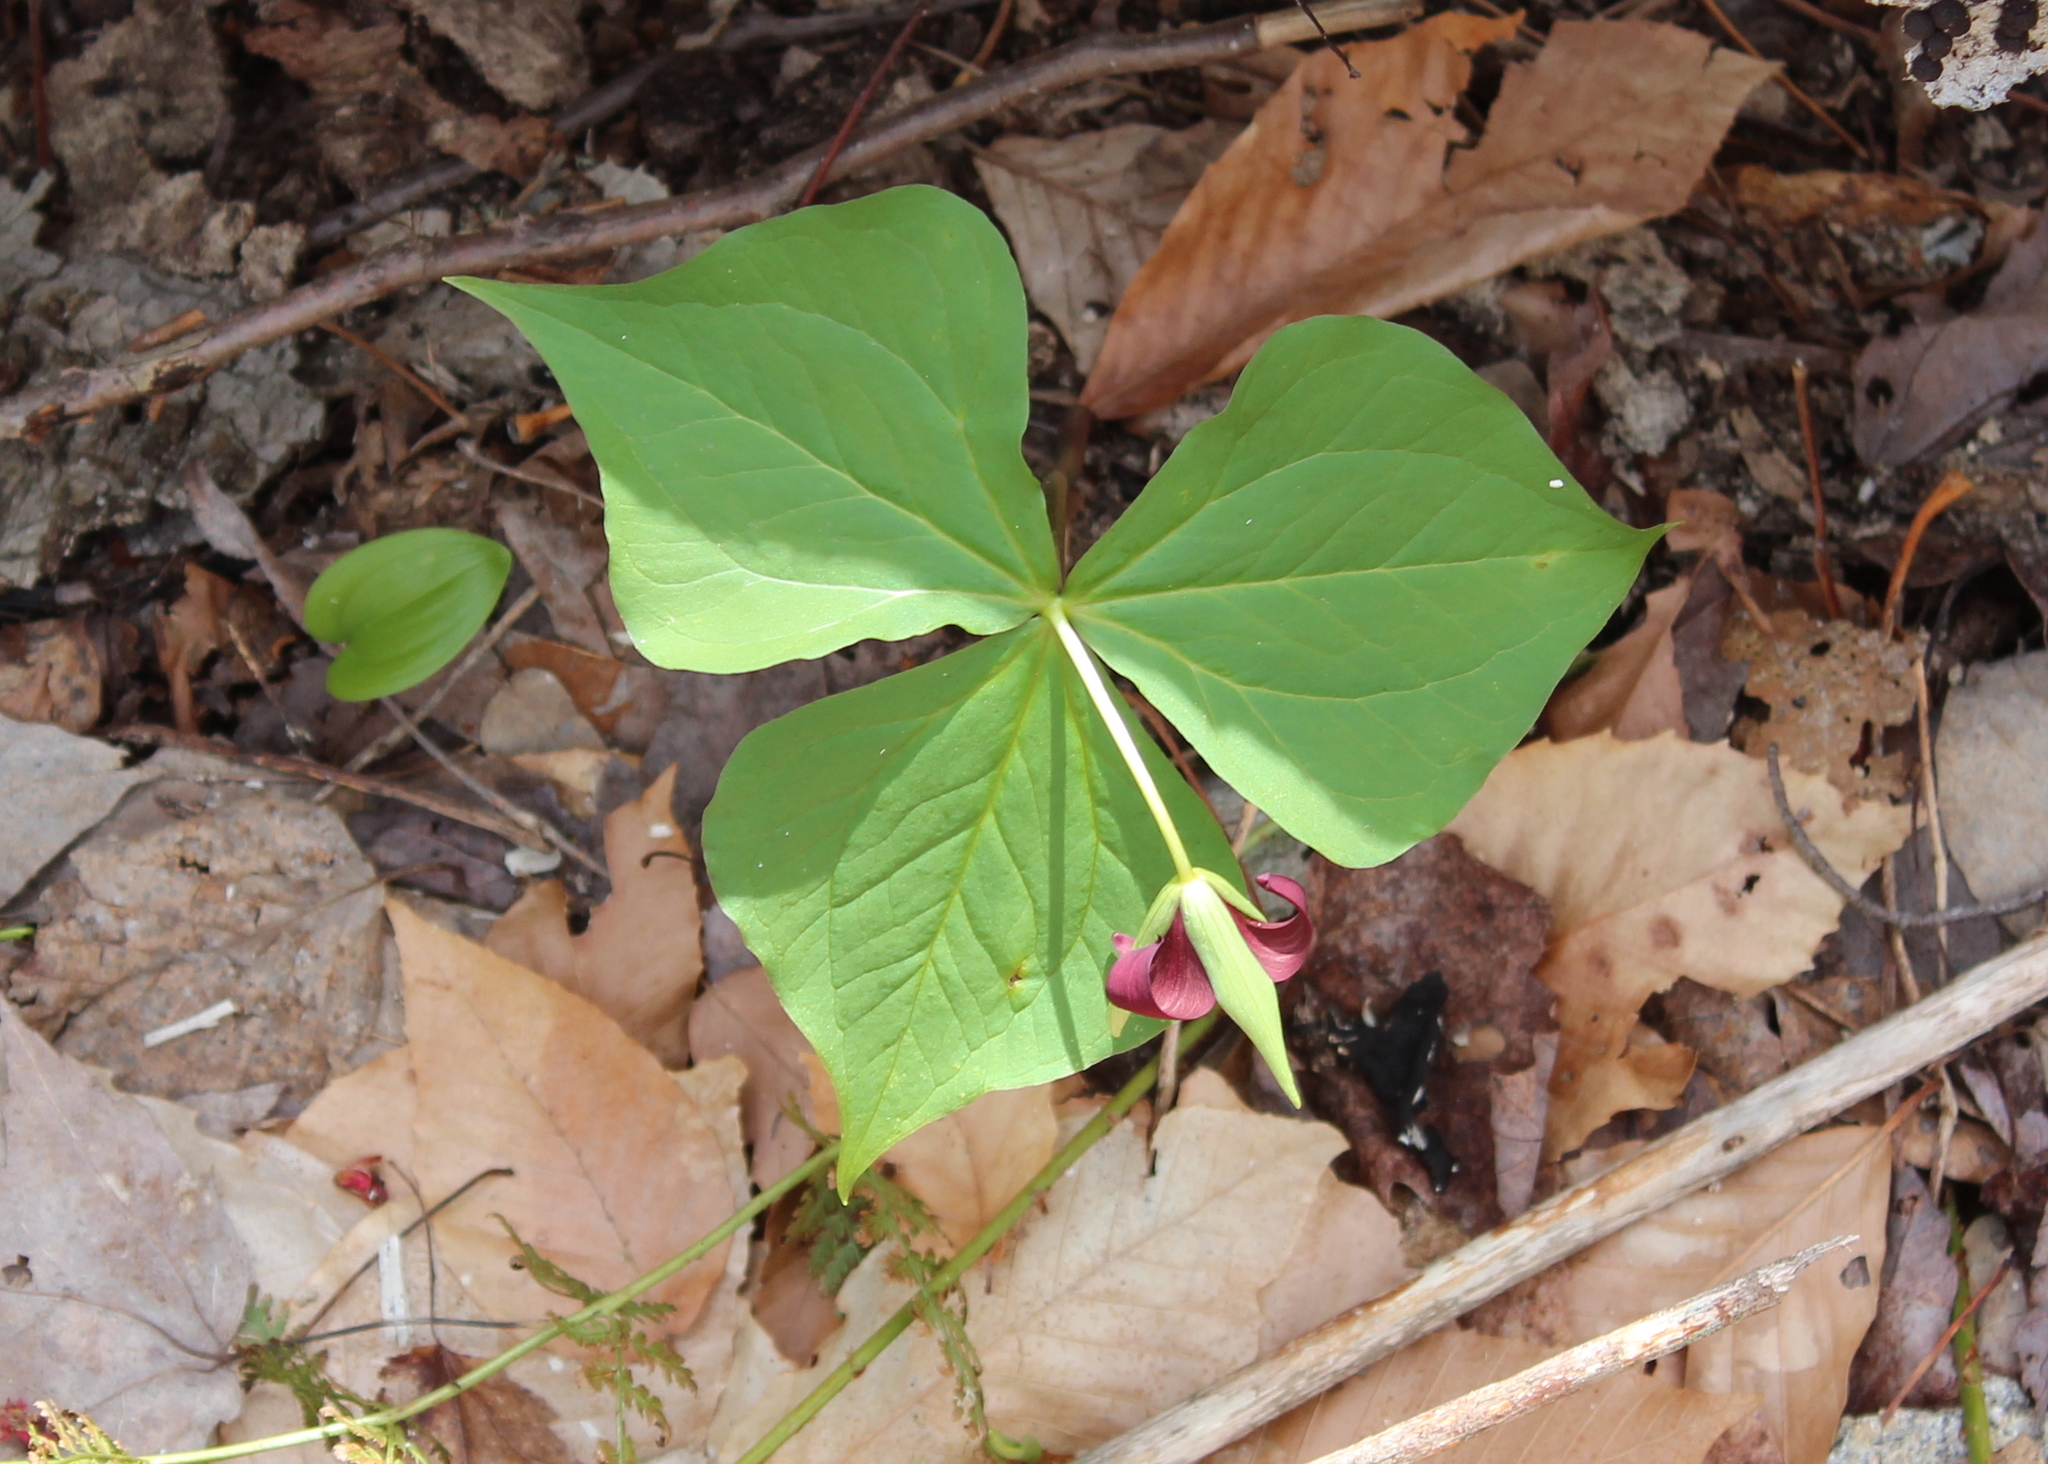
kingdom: Plantae
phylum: Tracheophyta
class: Liliopsida
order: Liliales
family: Melanthiaceae
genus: Trillium
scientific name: Trillium erectum
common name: Purple trillium
